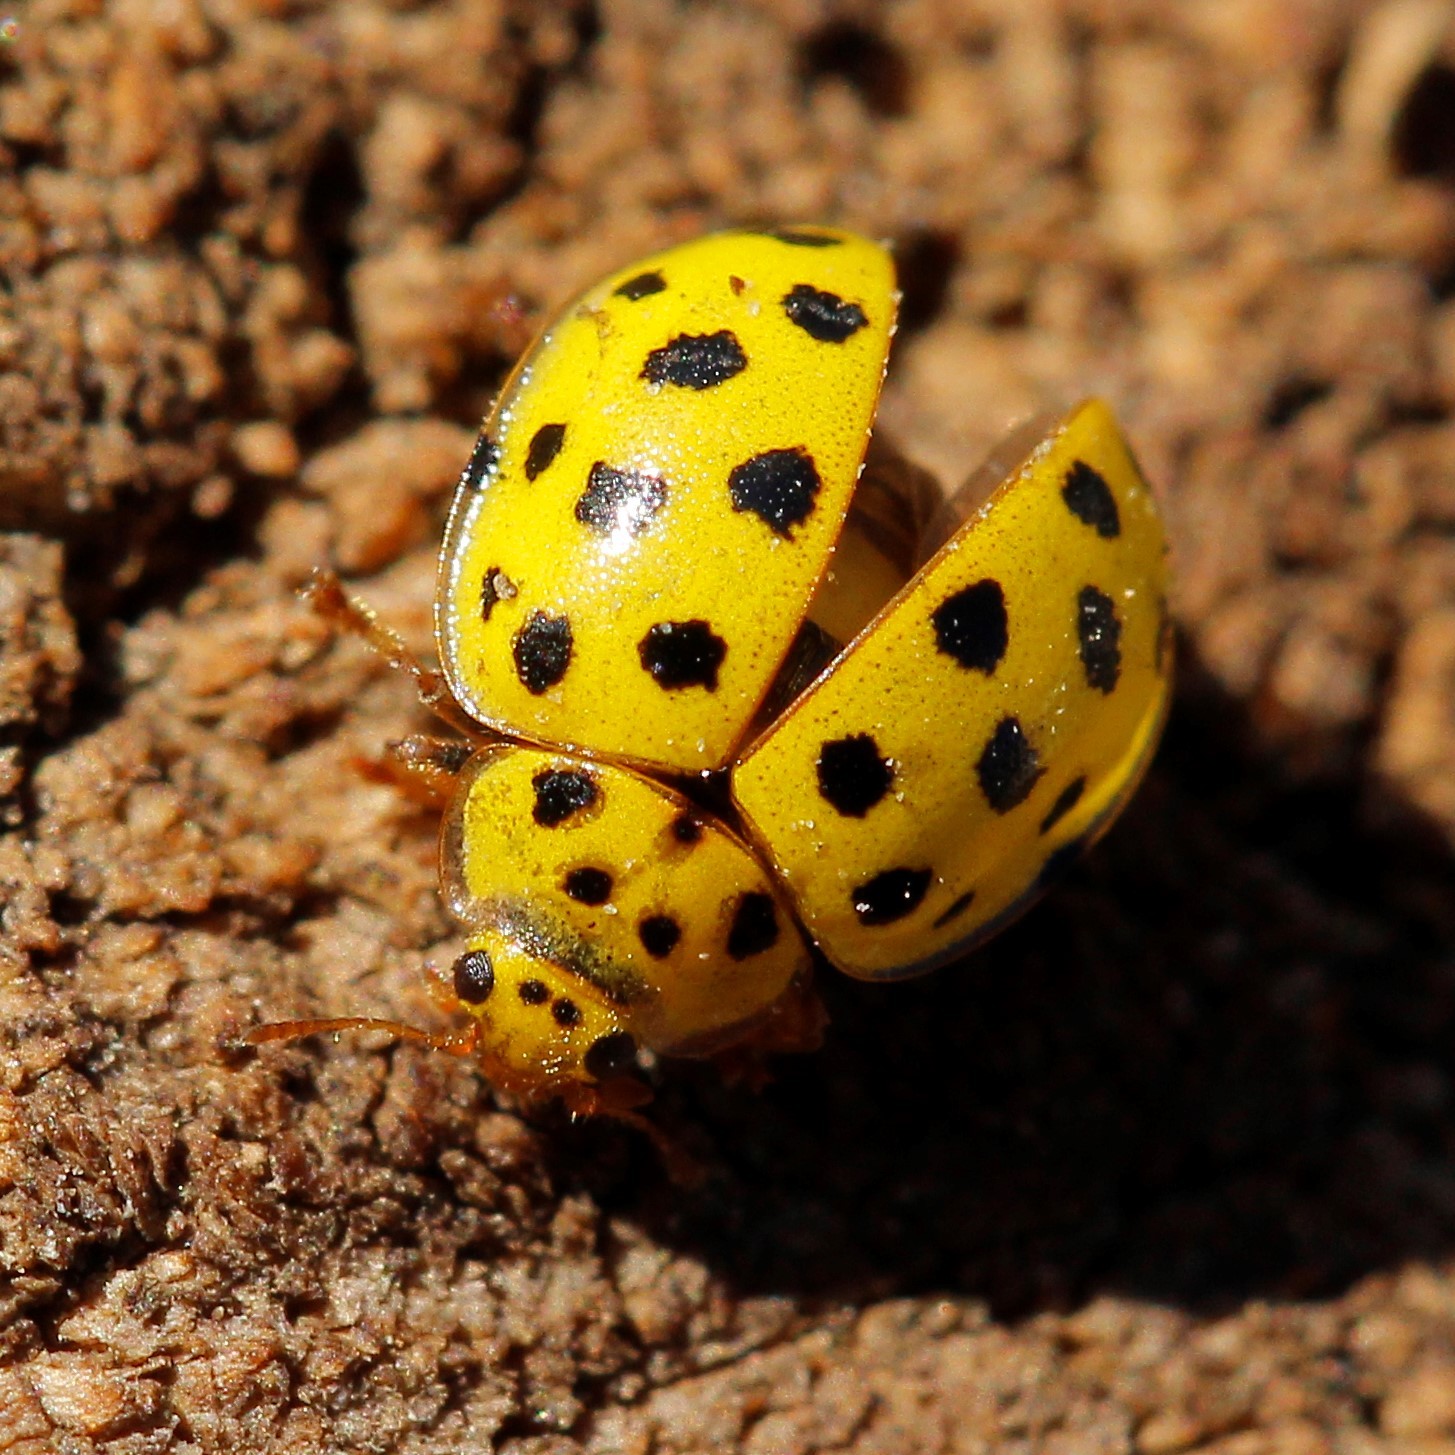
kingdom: Animalia
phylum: Arthropoda
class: Insecta
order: Coleoptera
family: Coccinellidae
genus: Psyllobora
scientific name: Psyllobora vigintiduopunctata
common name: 22-spot ladybird
